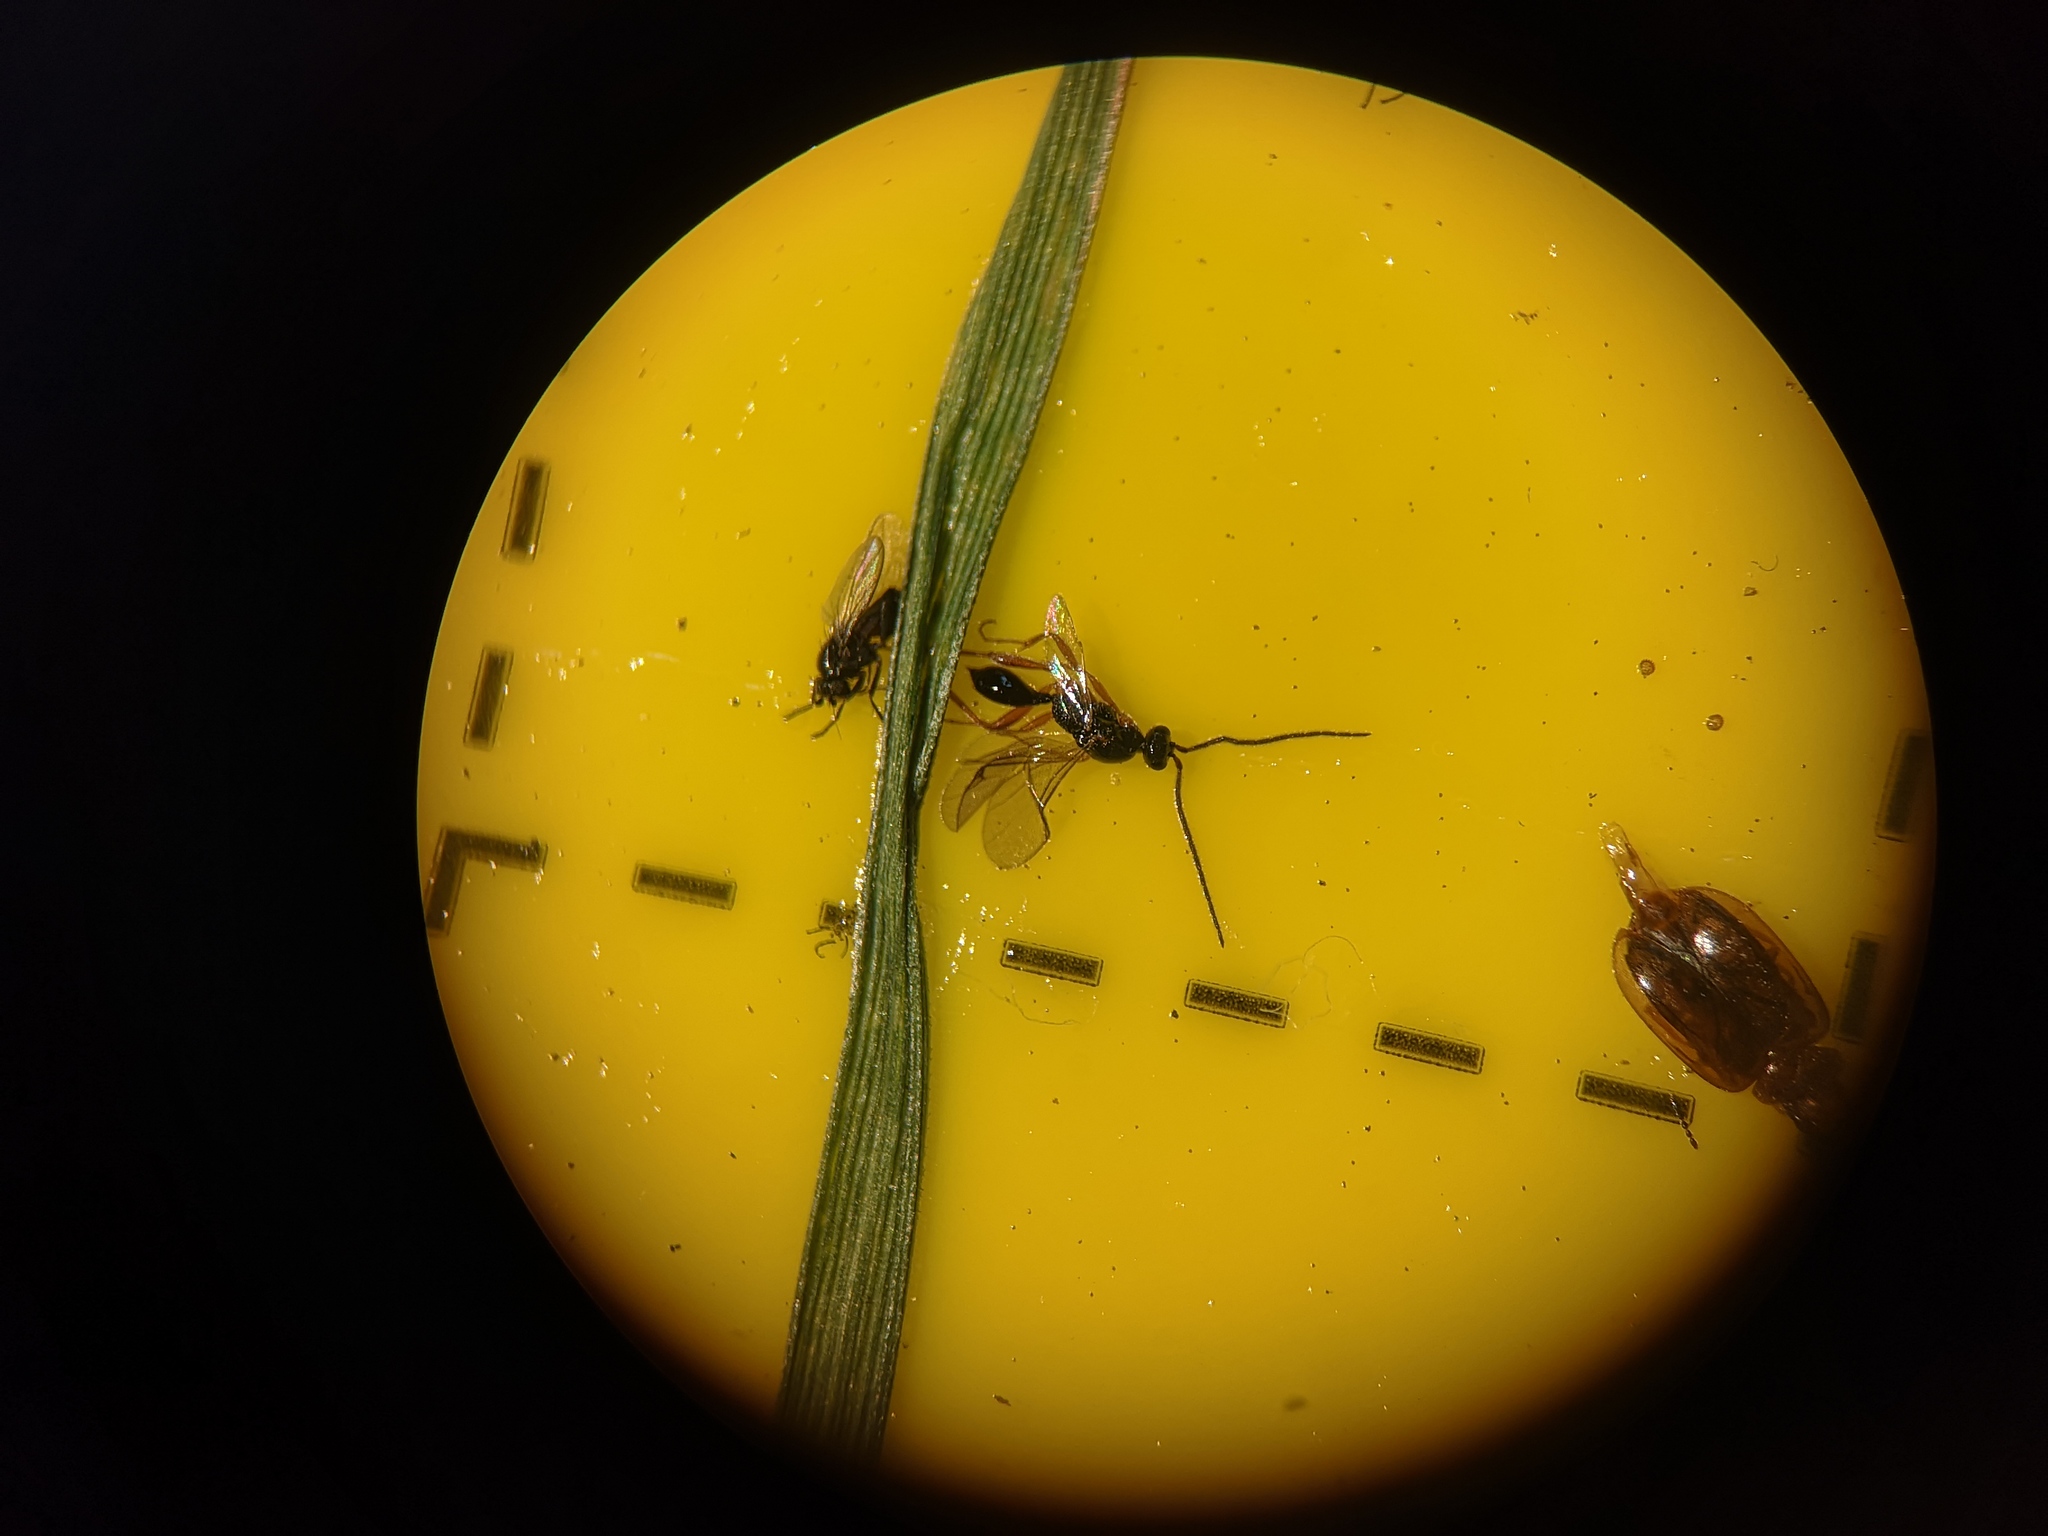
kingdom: Animalia
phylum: Arthropoda
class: Insecta
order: Hymenoptera
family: Proctotrupidae
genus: Phaneroserphus
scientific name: Phaneroserphus calcar
